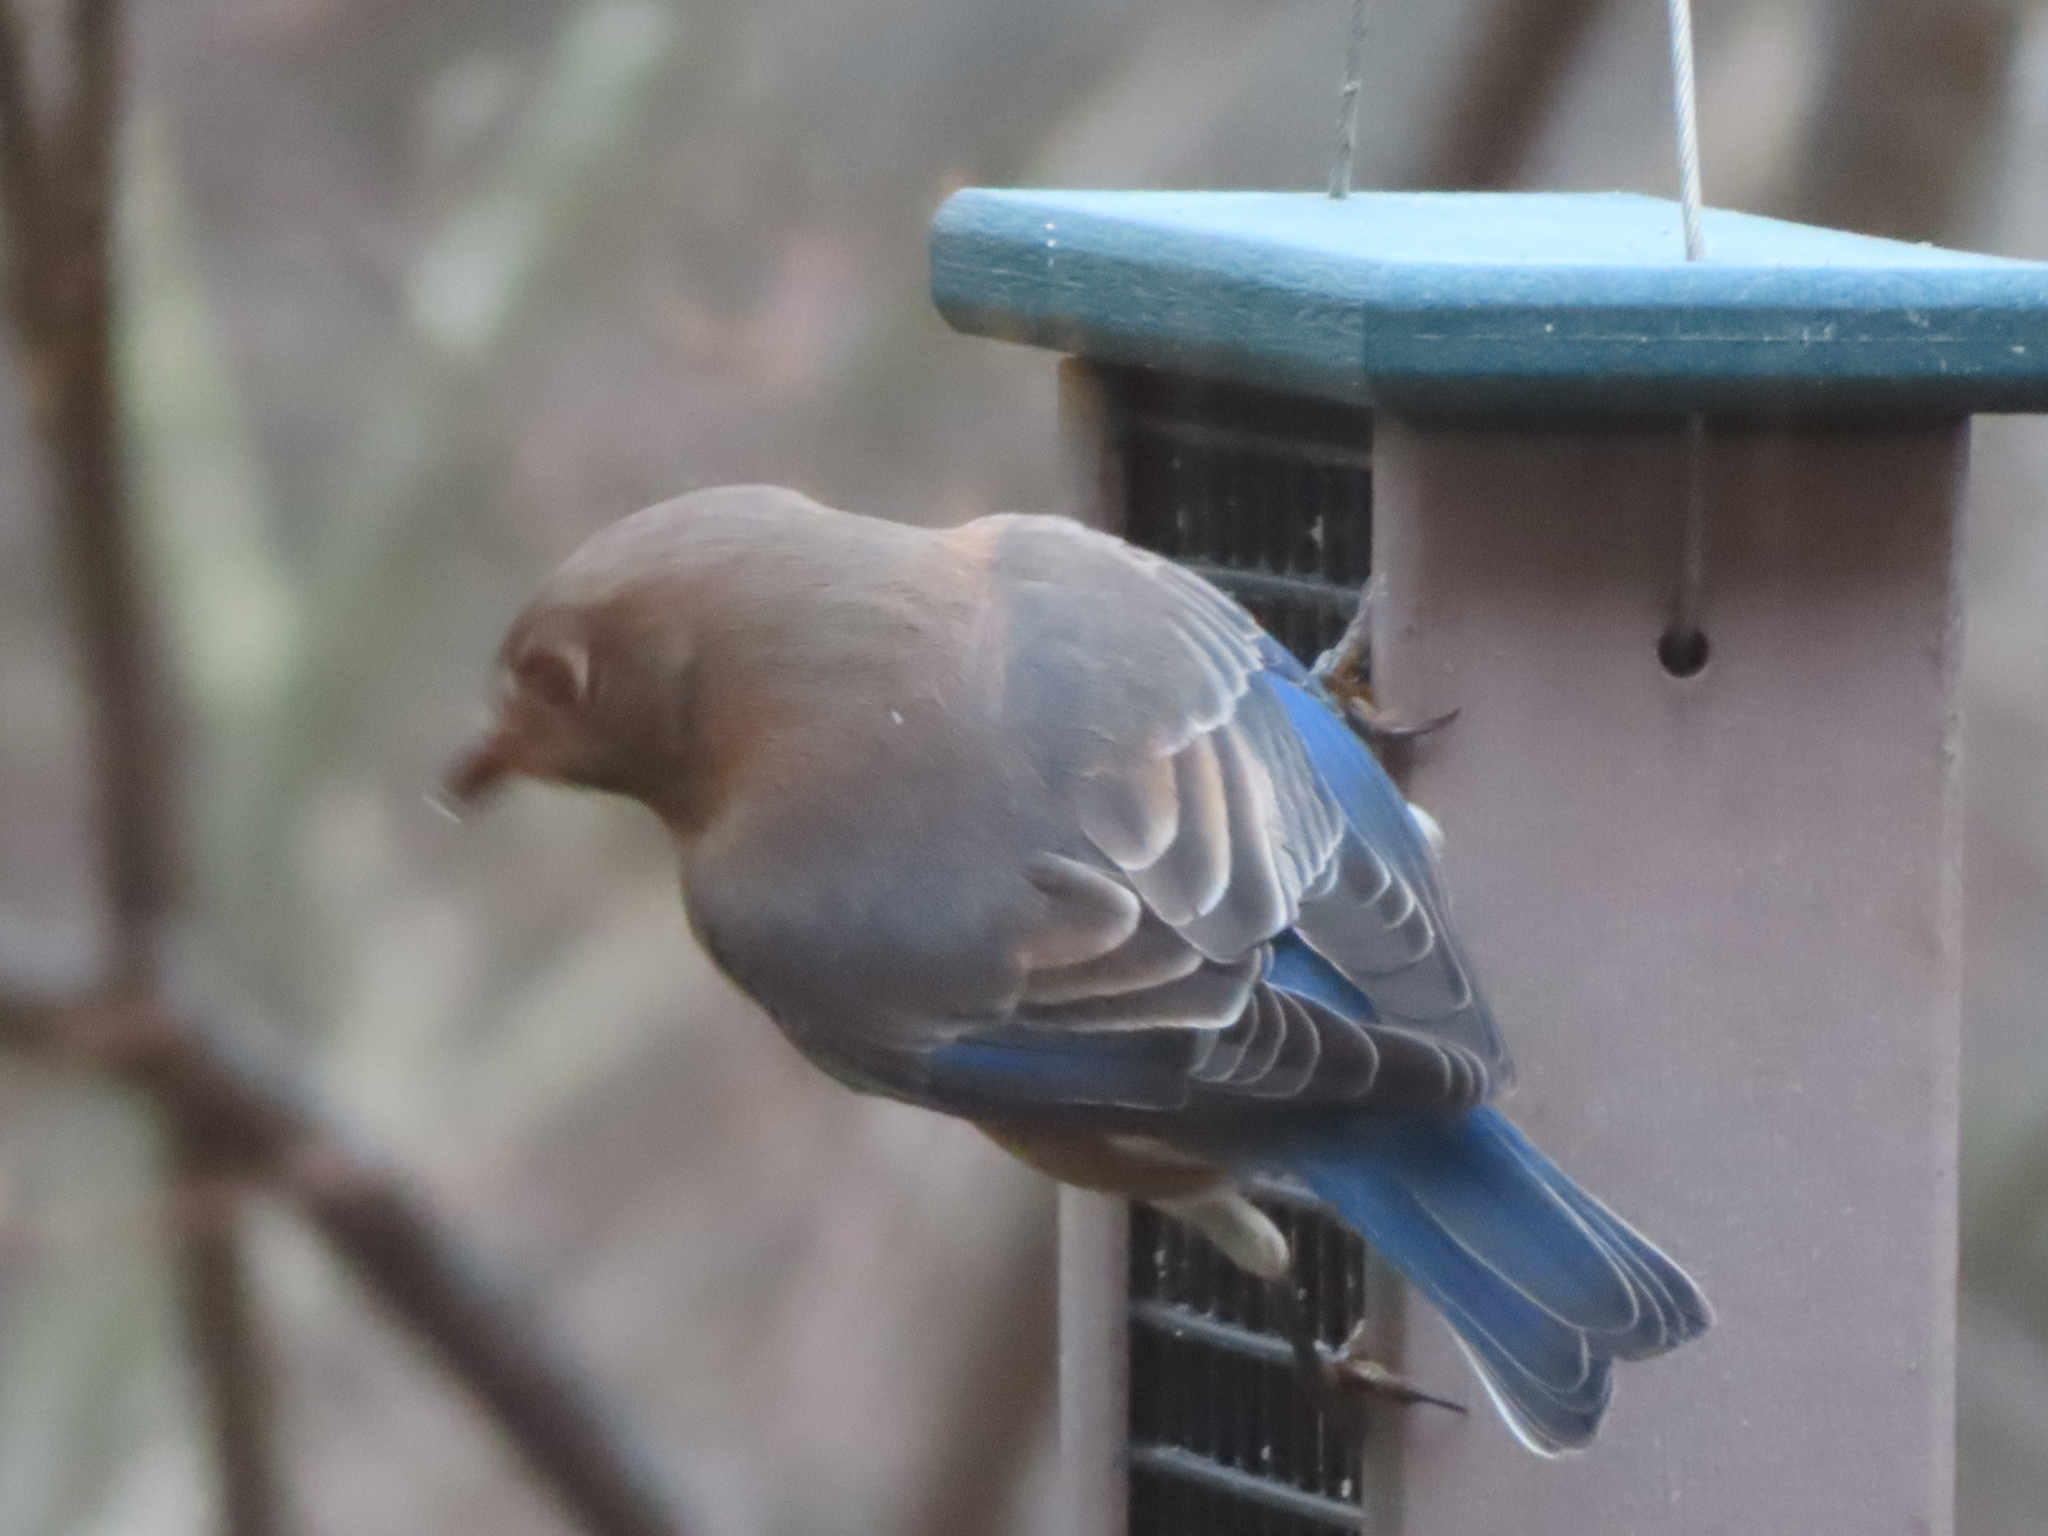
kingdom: Animalia
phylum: Chordata
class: Aves
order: Passeriformes
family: Turdidae
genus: Sialia
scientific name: Sialia sialis
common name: Eastern bluebird
